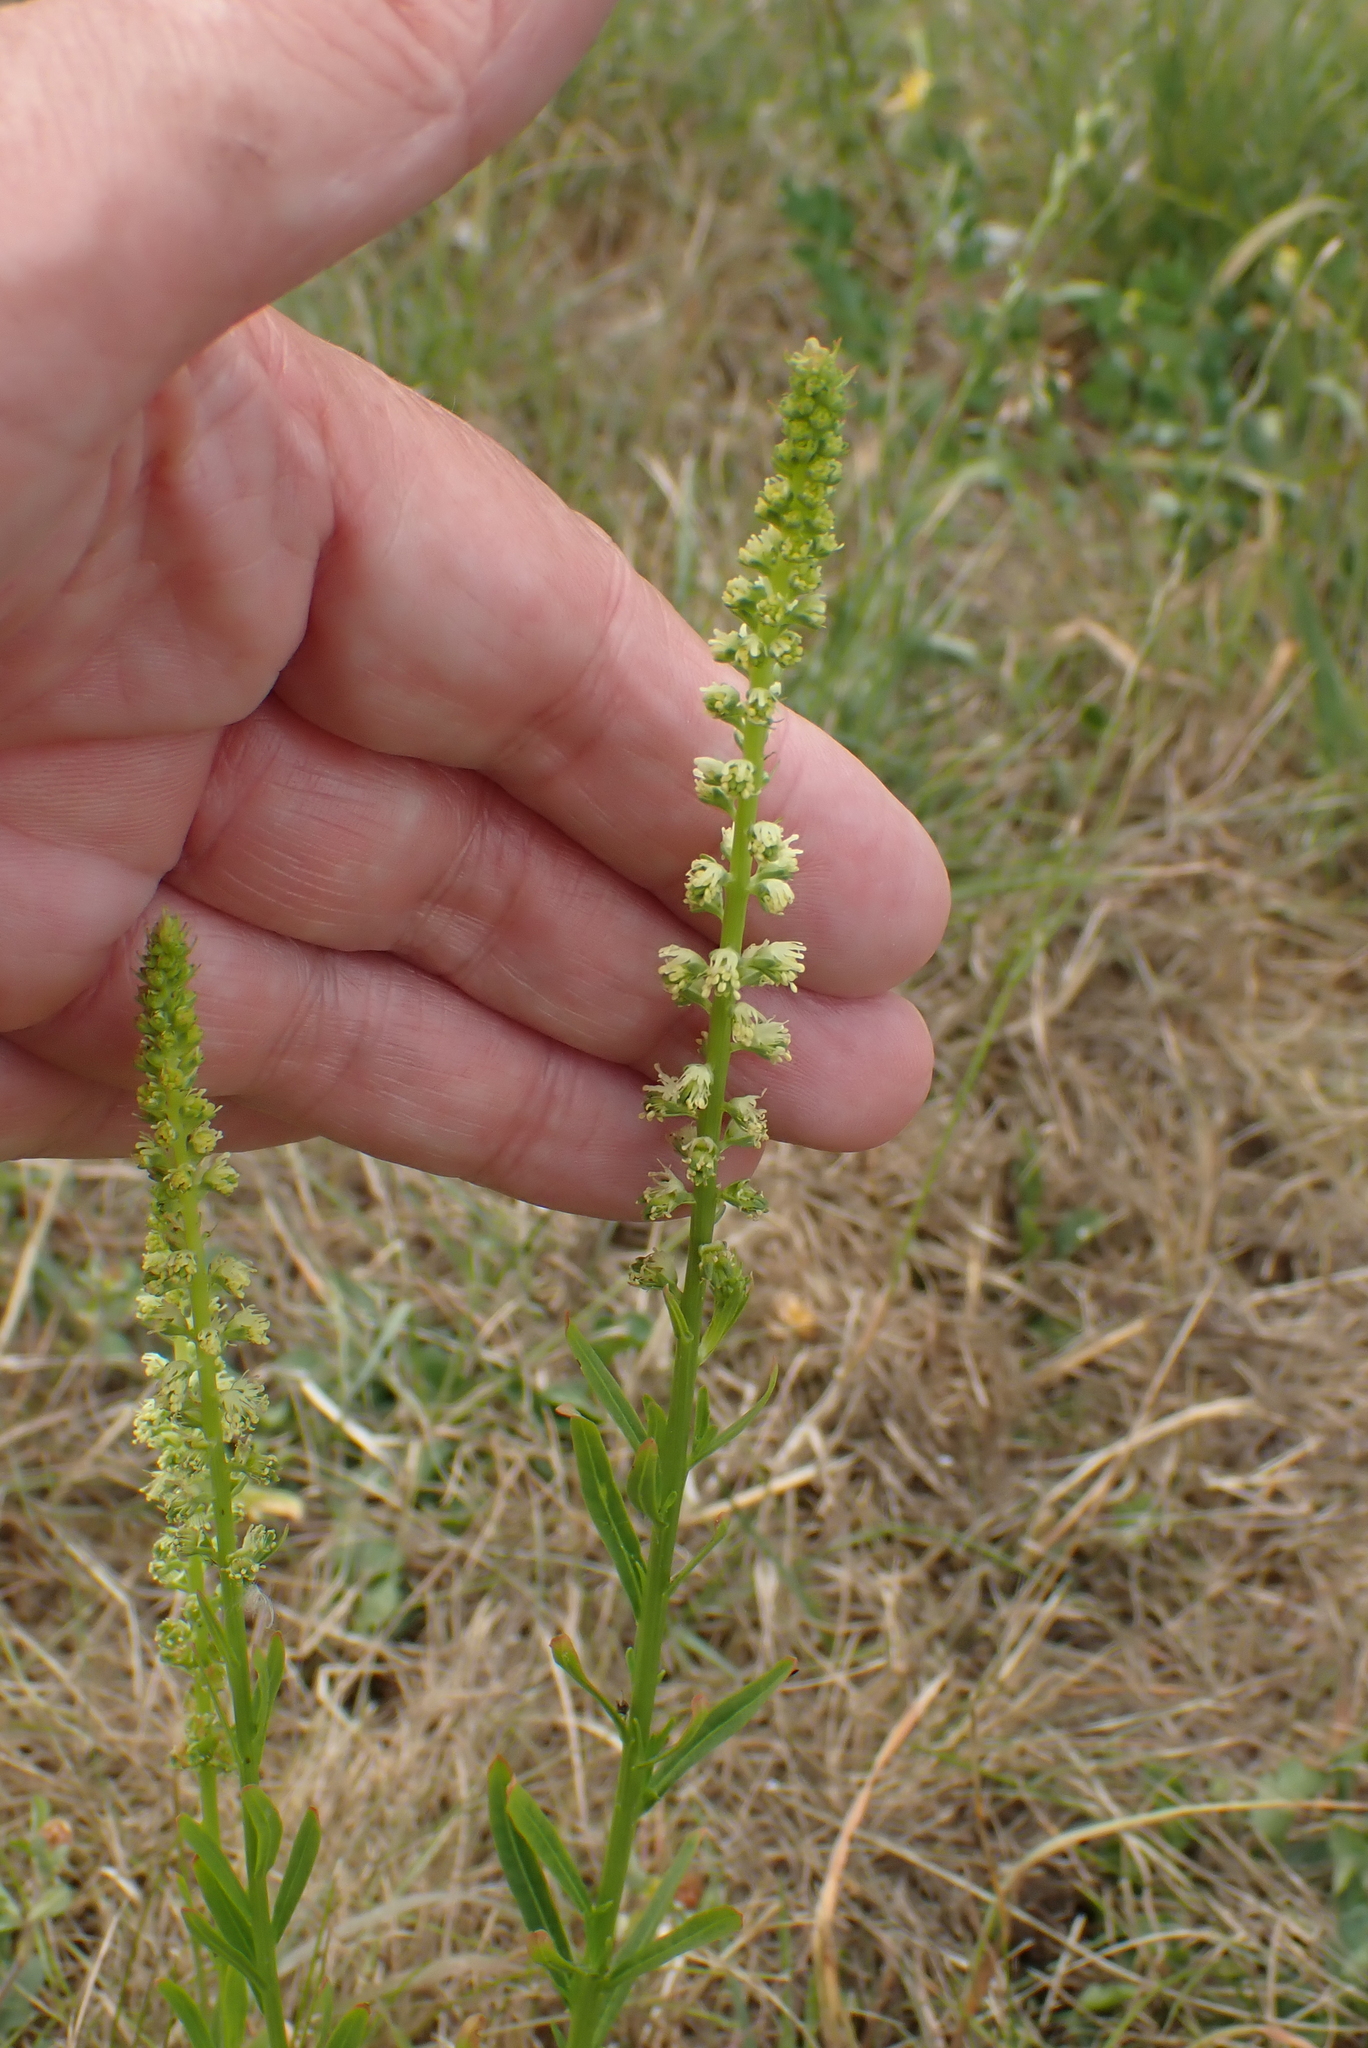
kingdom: Plantae
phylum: Tracheophyta
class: Magnoliopsida
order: Brassicales
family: Resedaceae
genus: Reseda
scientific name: Reseda luteola
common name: Weld
